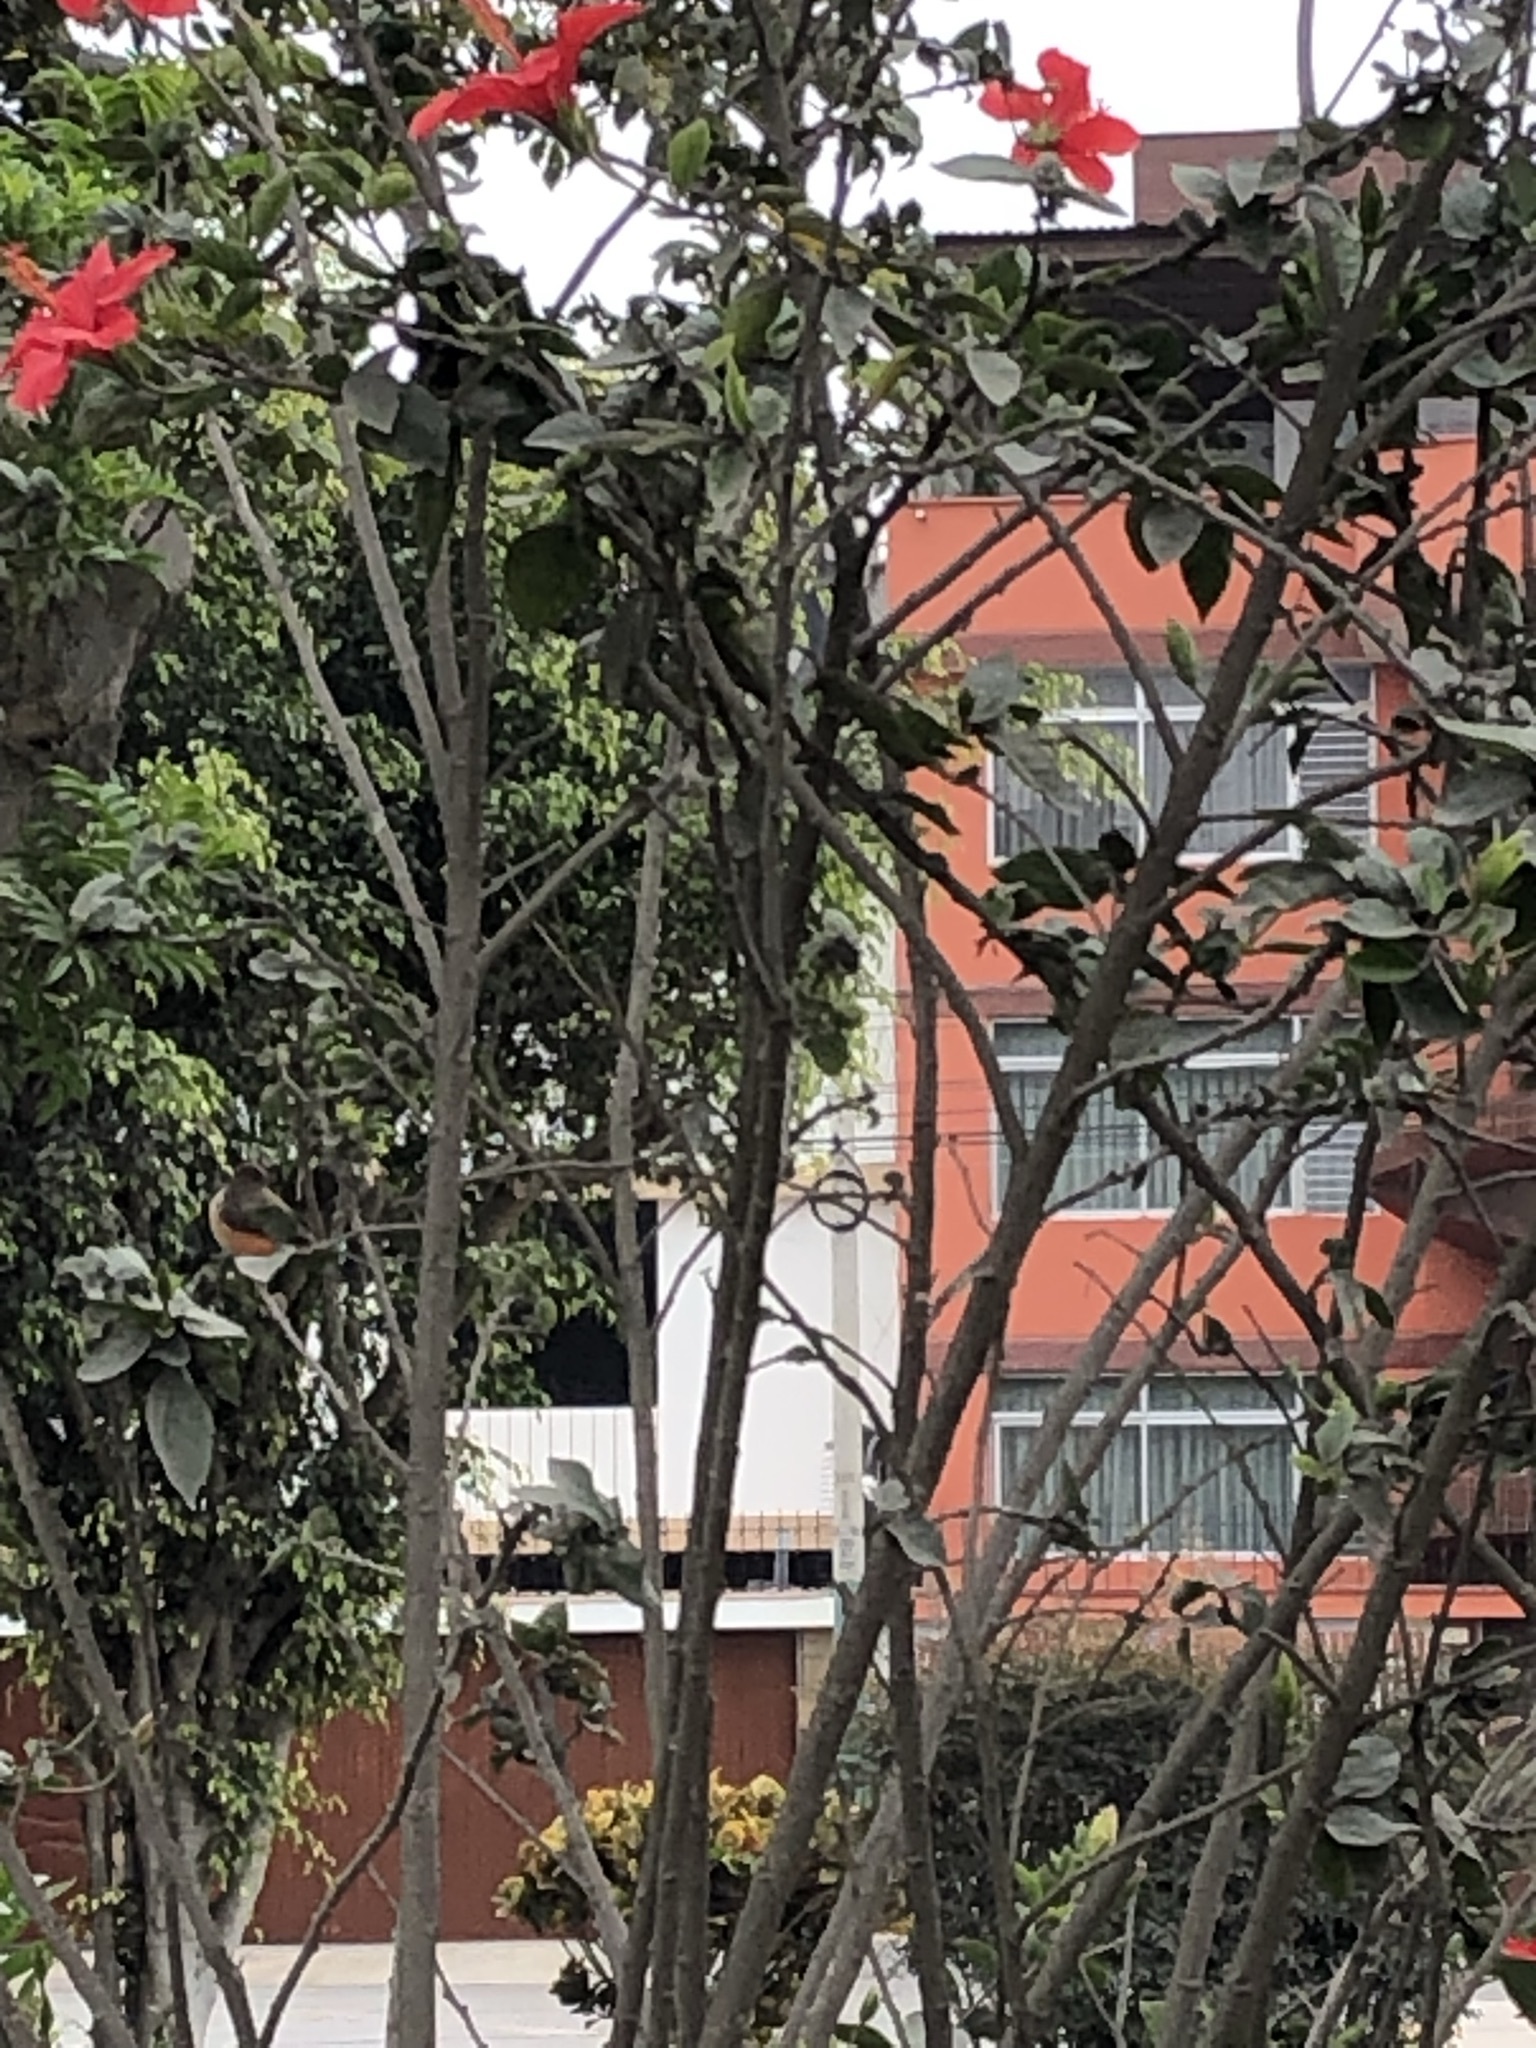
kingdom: Animalia
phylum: Chordata
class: Aves
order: Passeriformes
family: Tyrannidae
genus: Pyrocephalus
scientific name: Pyrocephalus rubinus
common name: Vermilion flycatcher
